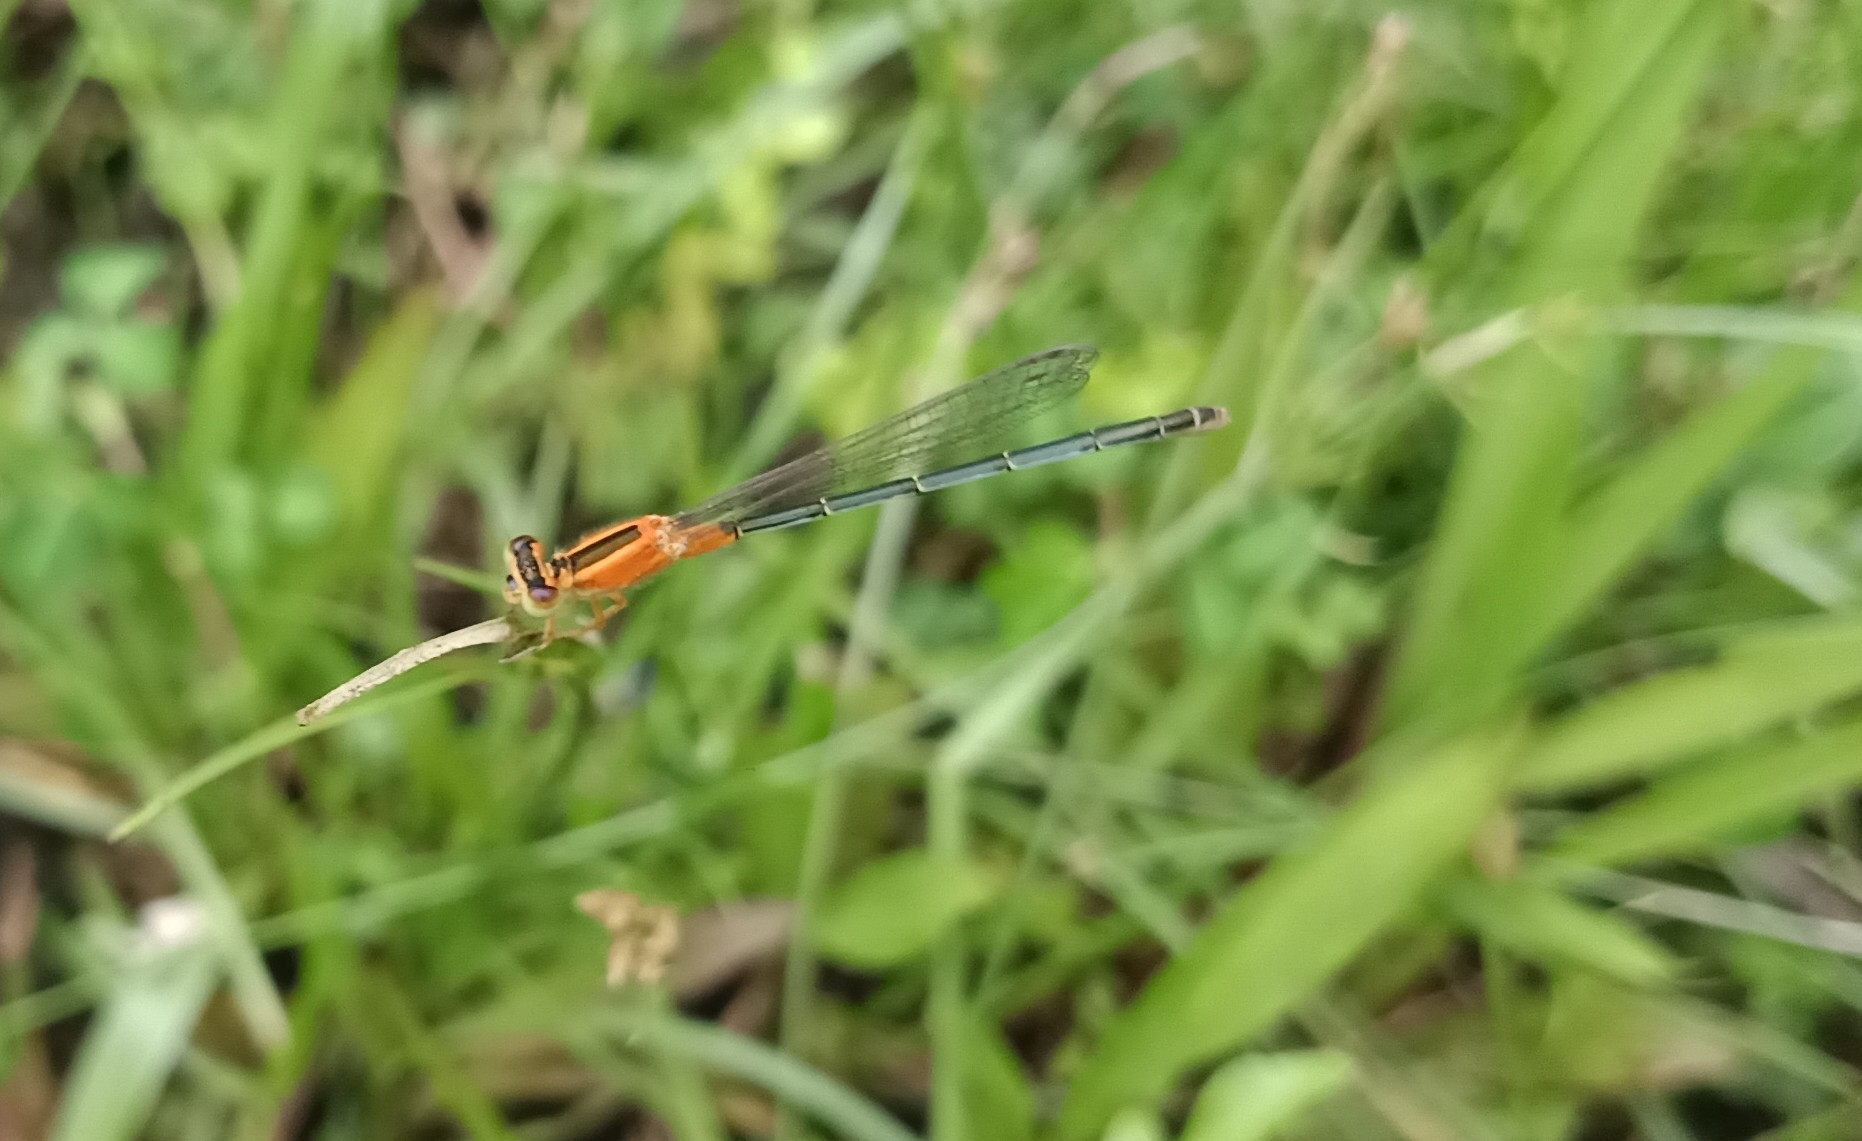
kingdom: Animalia
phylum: Arthropoda
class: Insecta
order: Odonata
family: Coenagrionidae
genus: Ischnura
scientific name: Ischnura senegalensis
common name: Tropical bluetail
